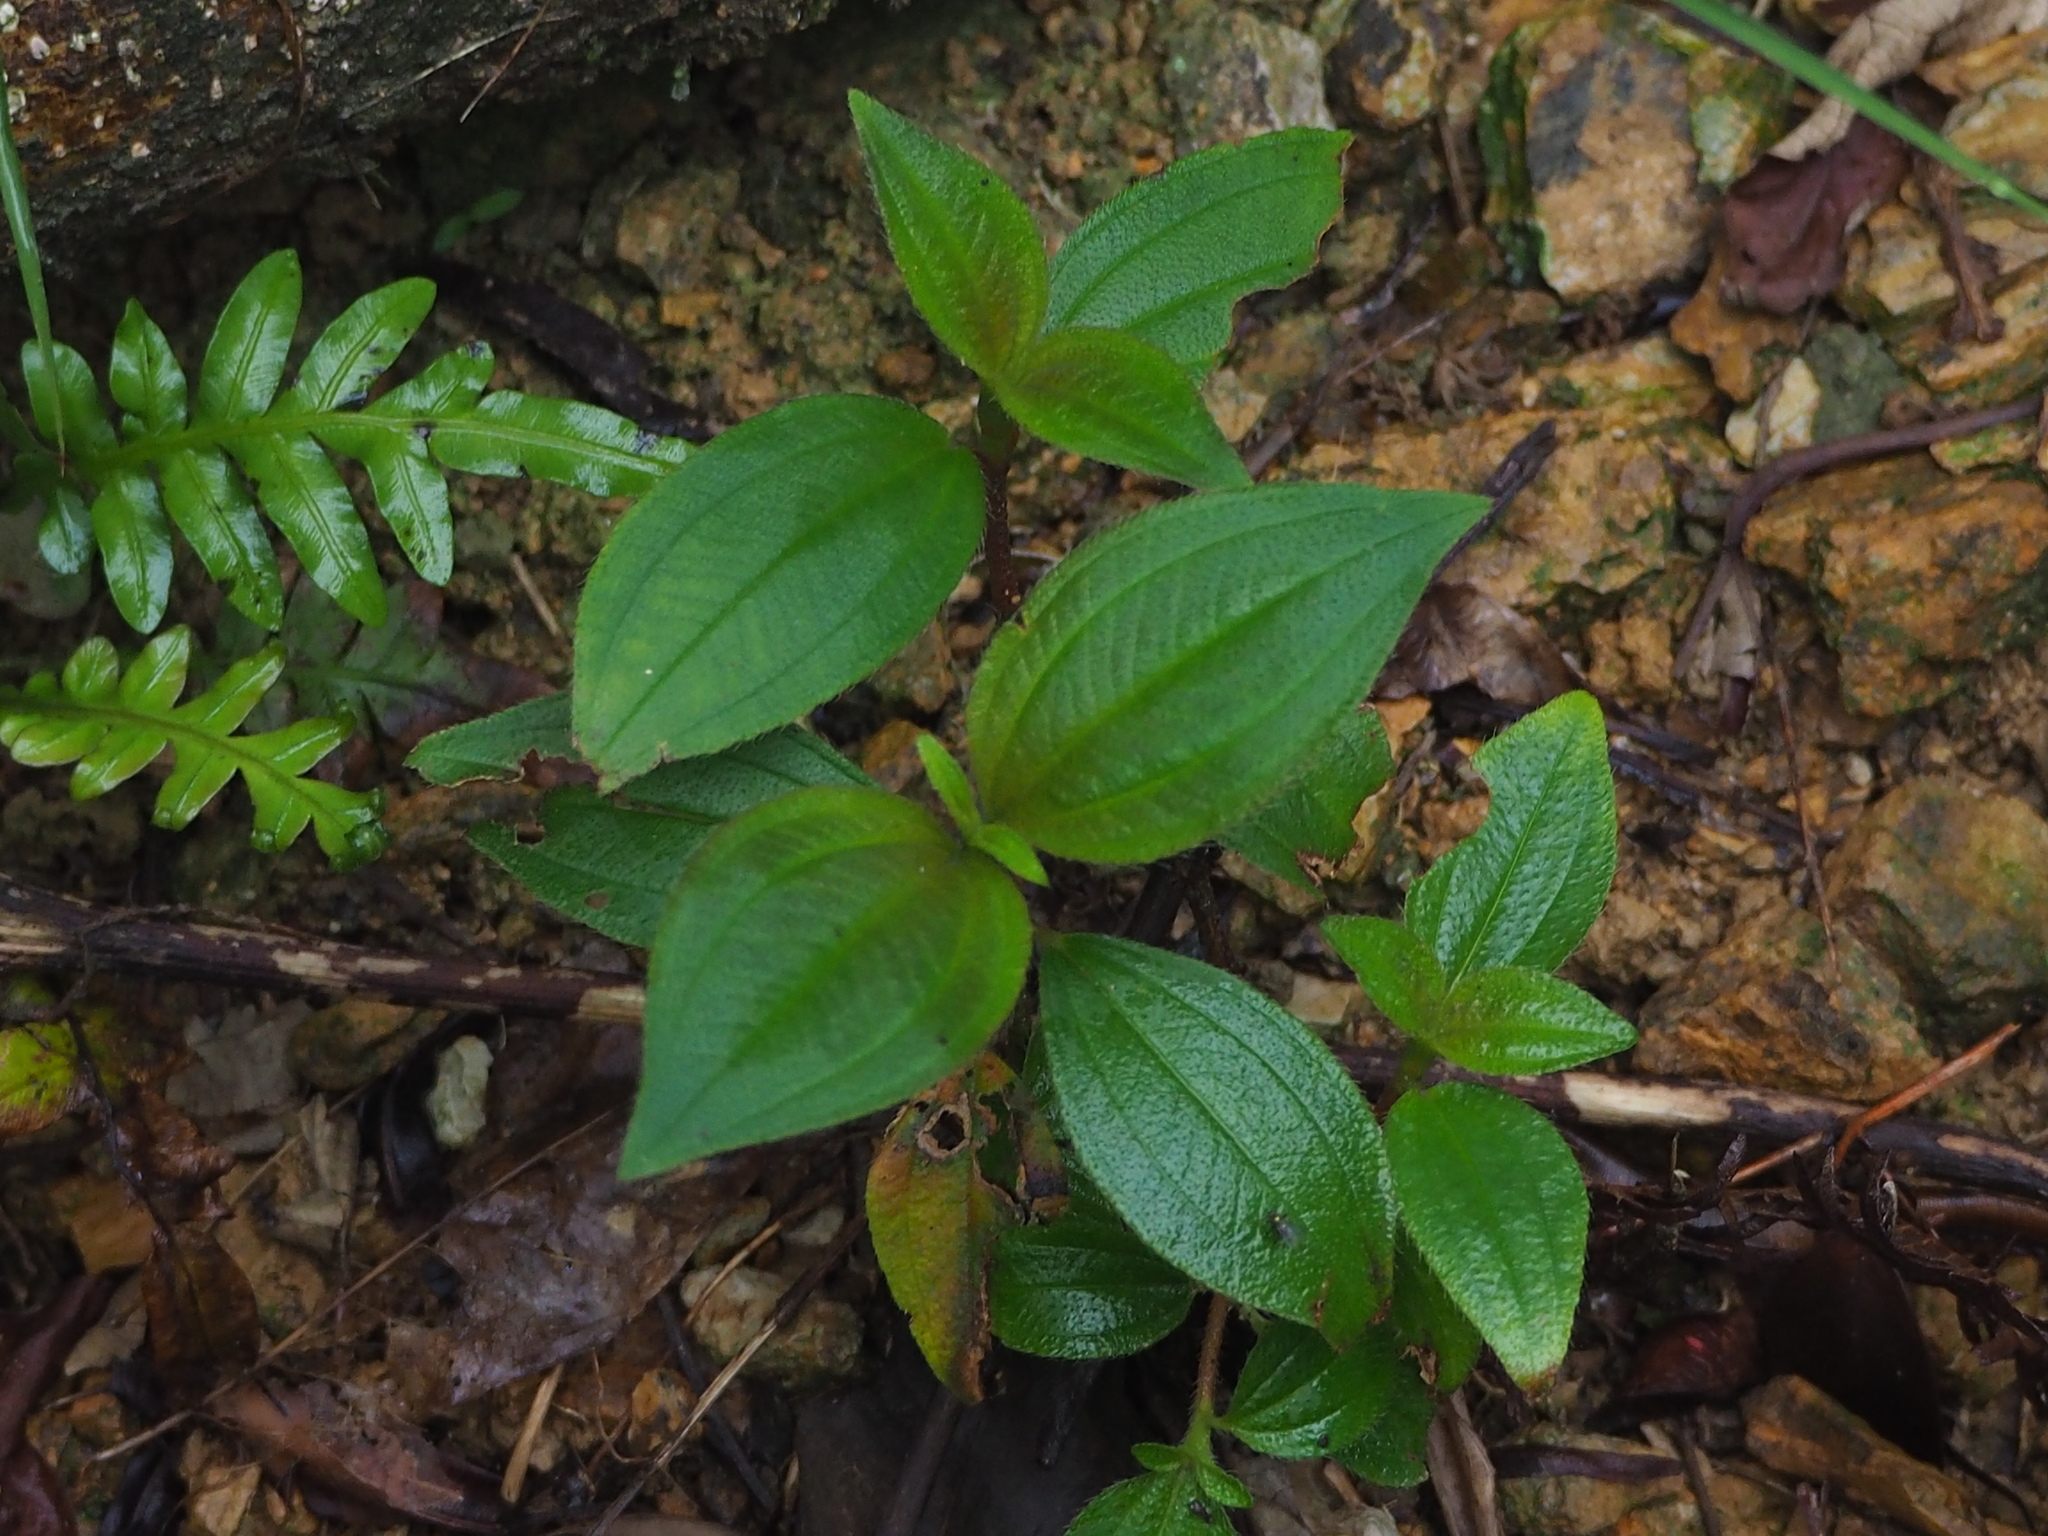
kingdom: Plantae
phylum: Tracheophyta
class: Magnoliopsida
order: Myrtales
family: Melastomataceae
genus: Melastoma
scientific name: Melastoma malabathricum
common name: Indian-rhododendron
